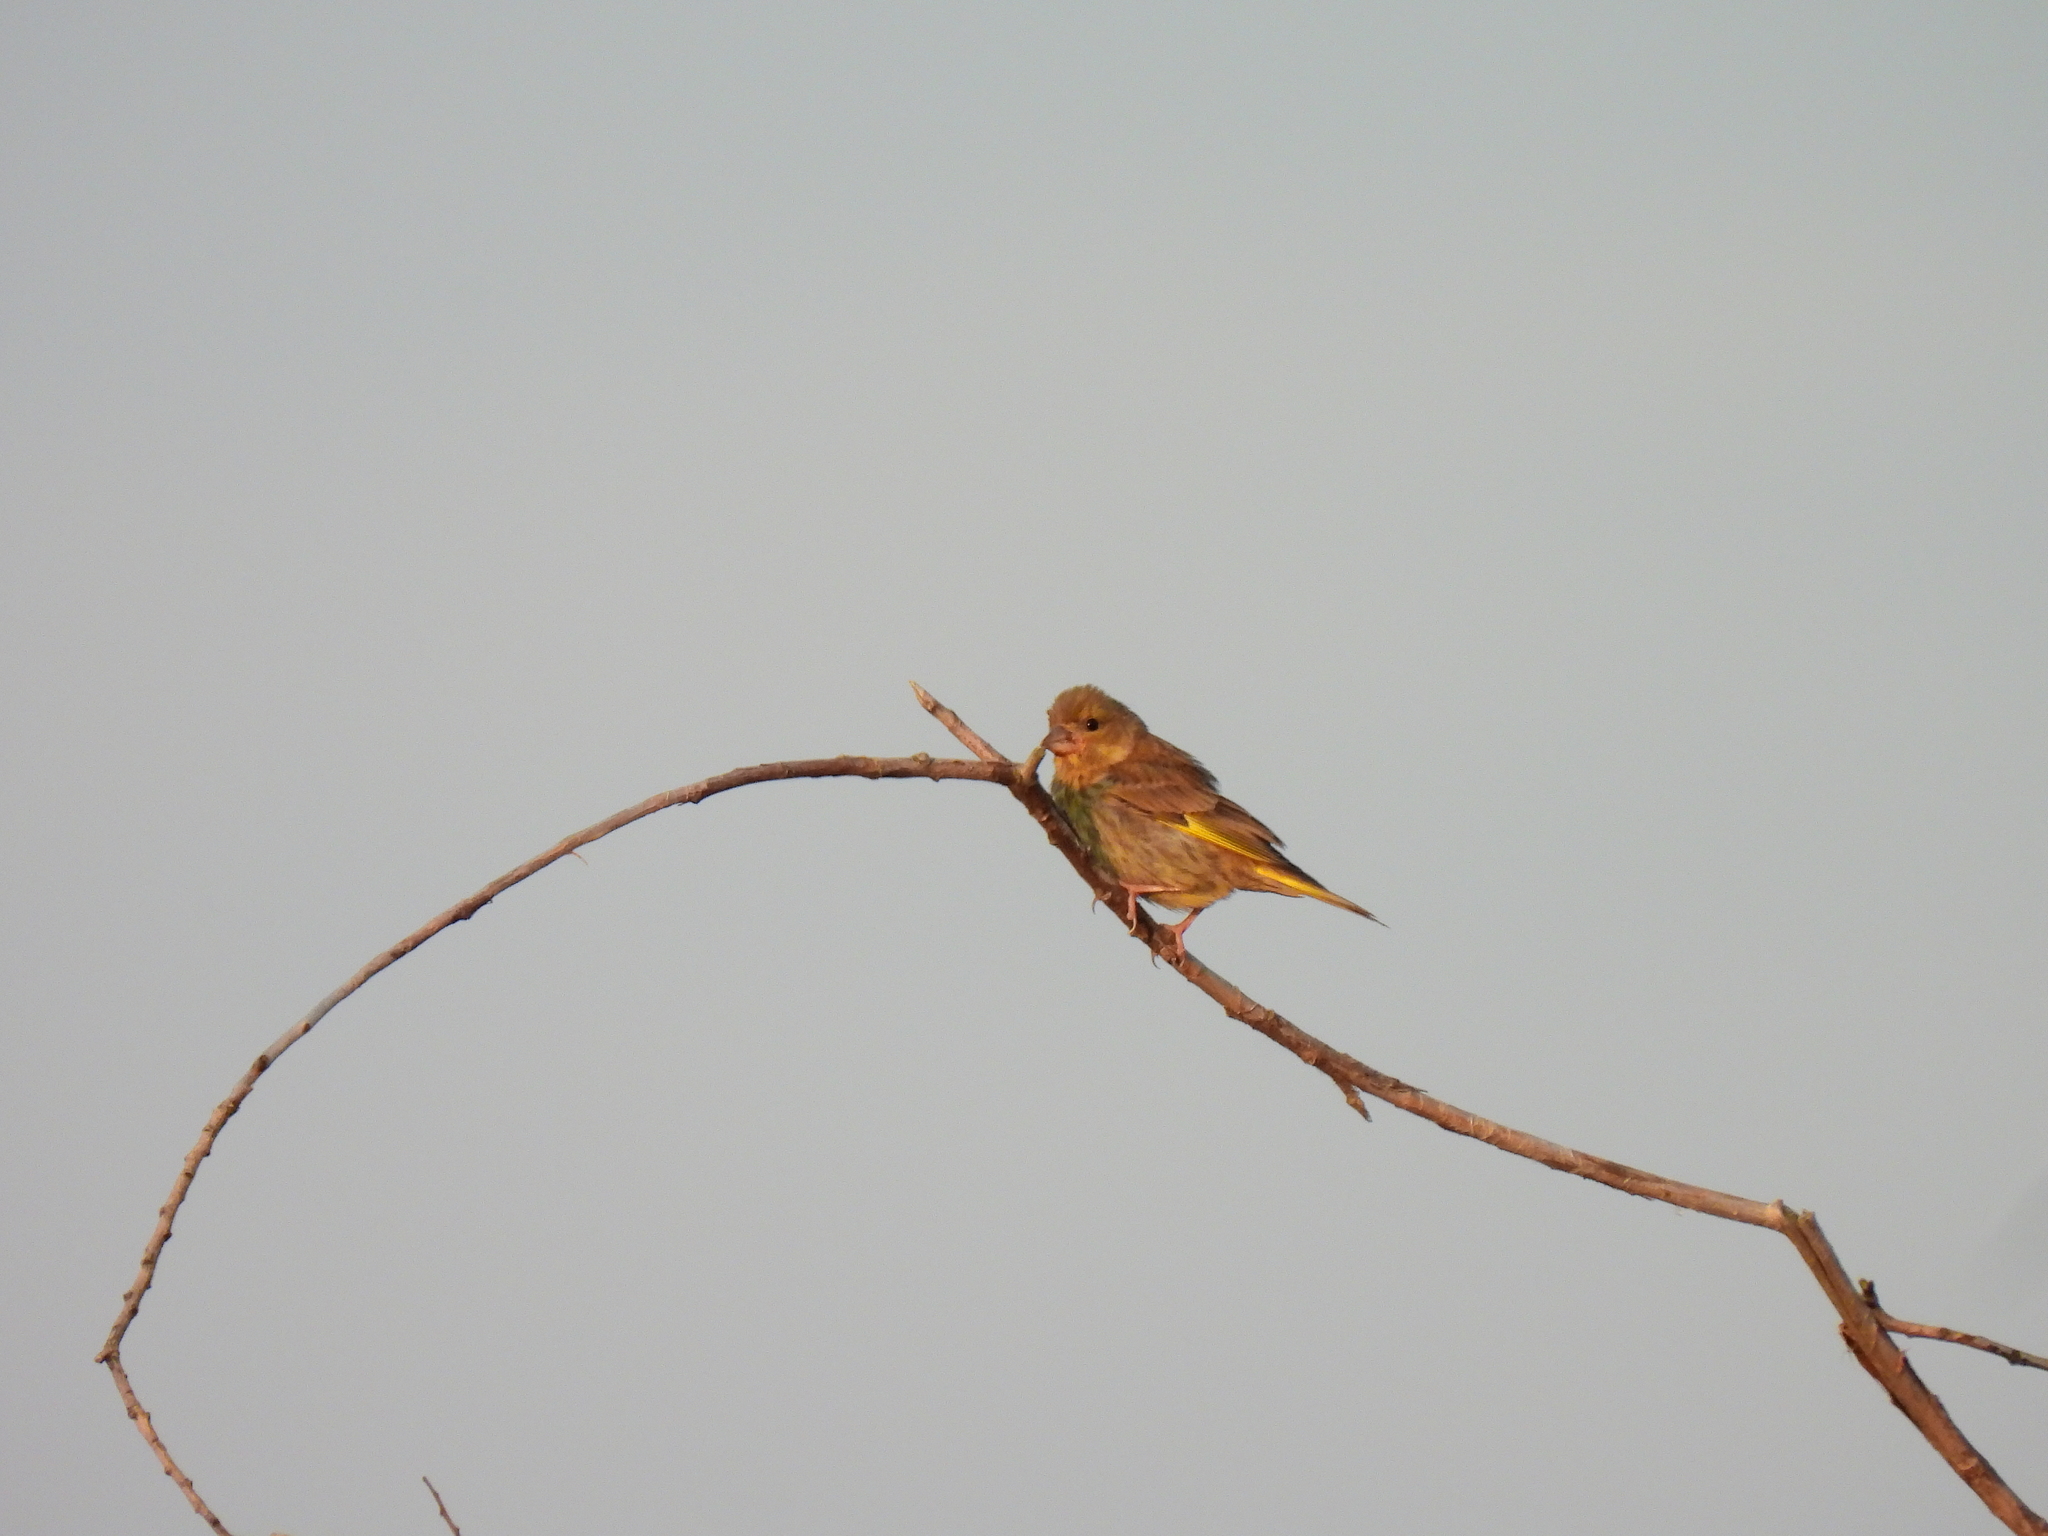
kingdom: Plantae
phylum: Tracheophyta
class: Liliopsida
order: Poales
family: Poaceae
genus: Chloris
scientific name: Chloris chloris
